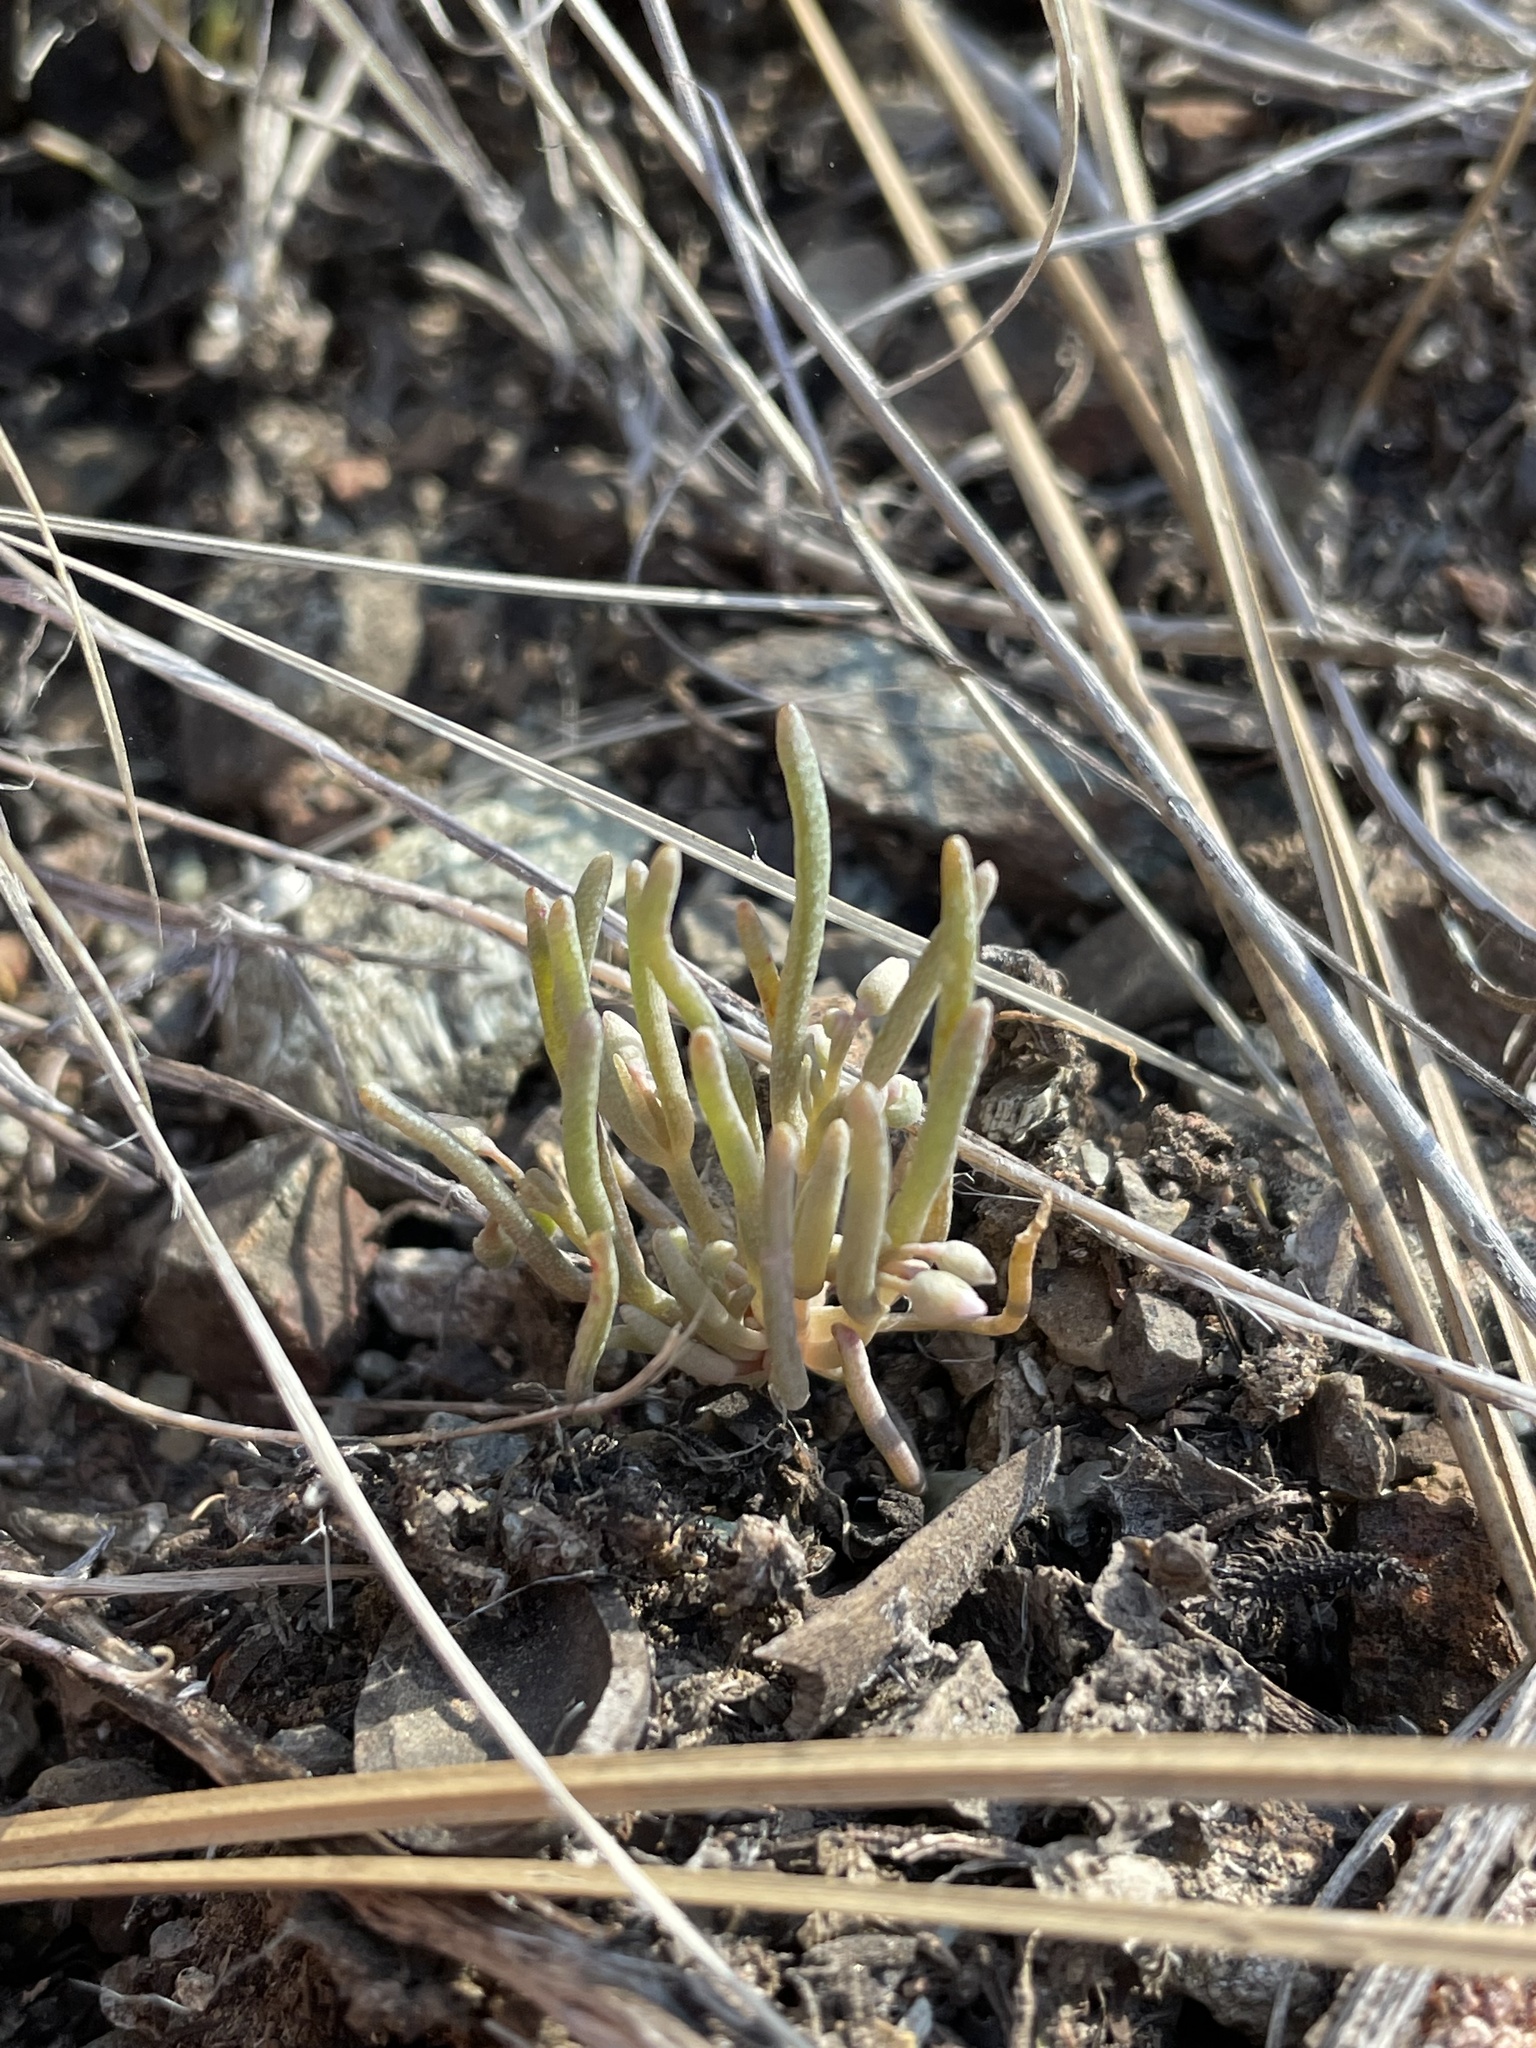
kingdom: Plantae
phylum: Tracheophyta
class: Magnoliopsida
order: Caryophyllales
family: Montiaceae
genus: Claytonia
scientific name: Claytonia exigua
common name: Pale spring beauty
